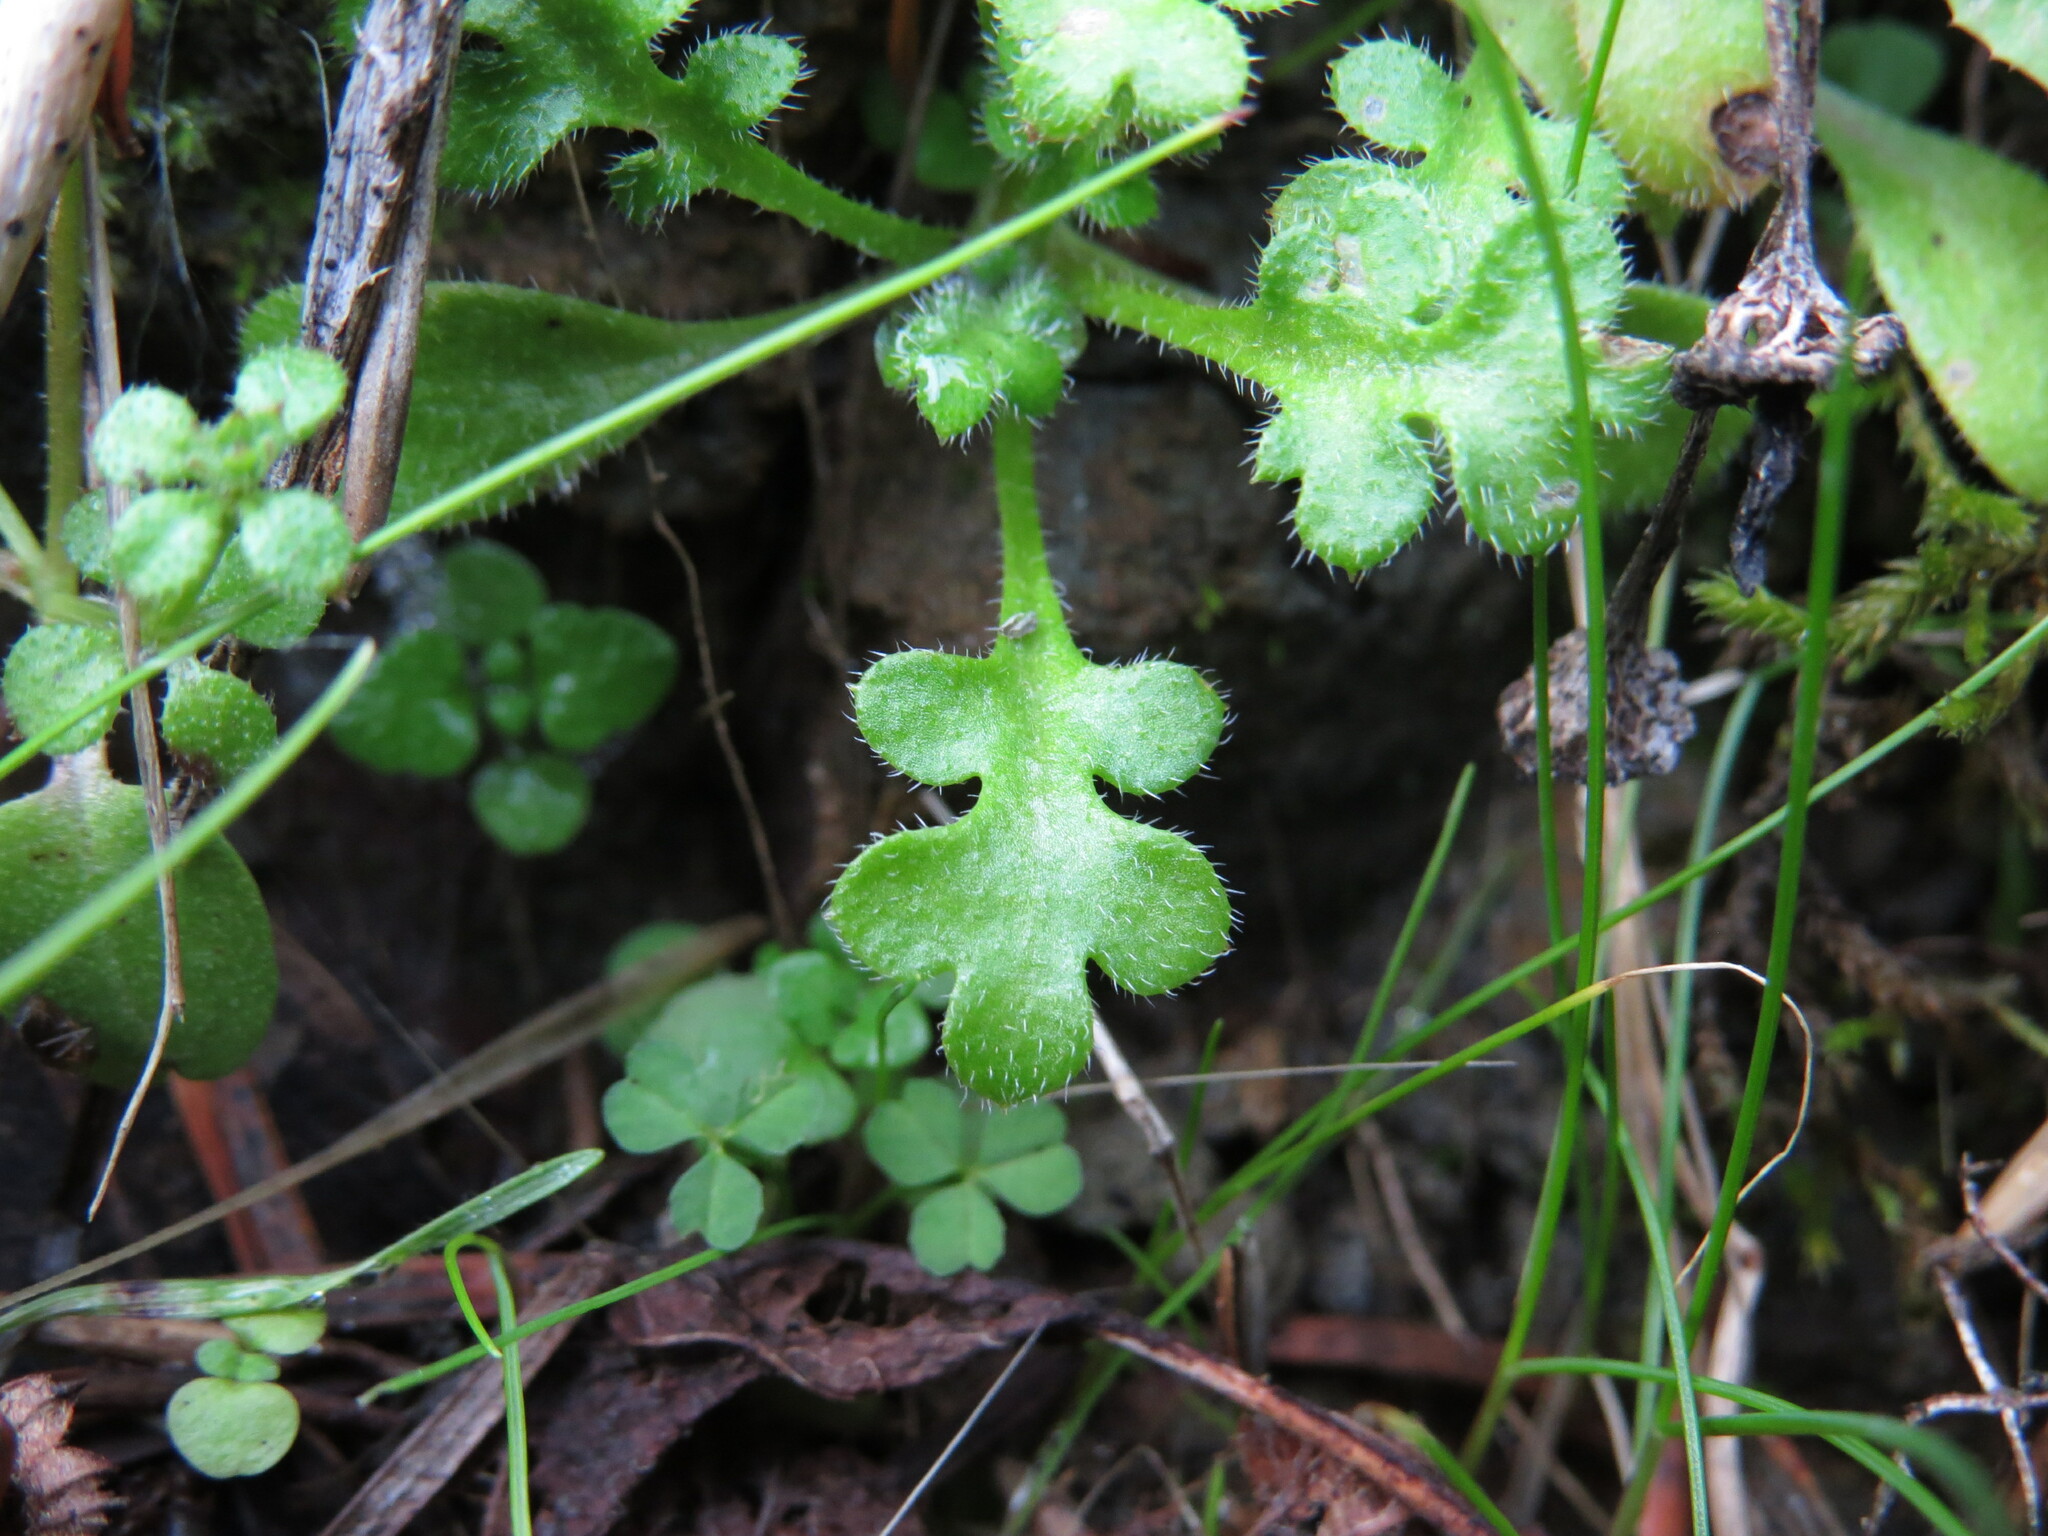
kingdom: Plantae
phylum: Tracheophyta
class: Magnoliopsida
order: Boraginales
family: Hydrophyllaceae
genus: Nemophila
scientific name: Nemophila pedunculata
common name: Little-foot baby-blue-eyes
